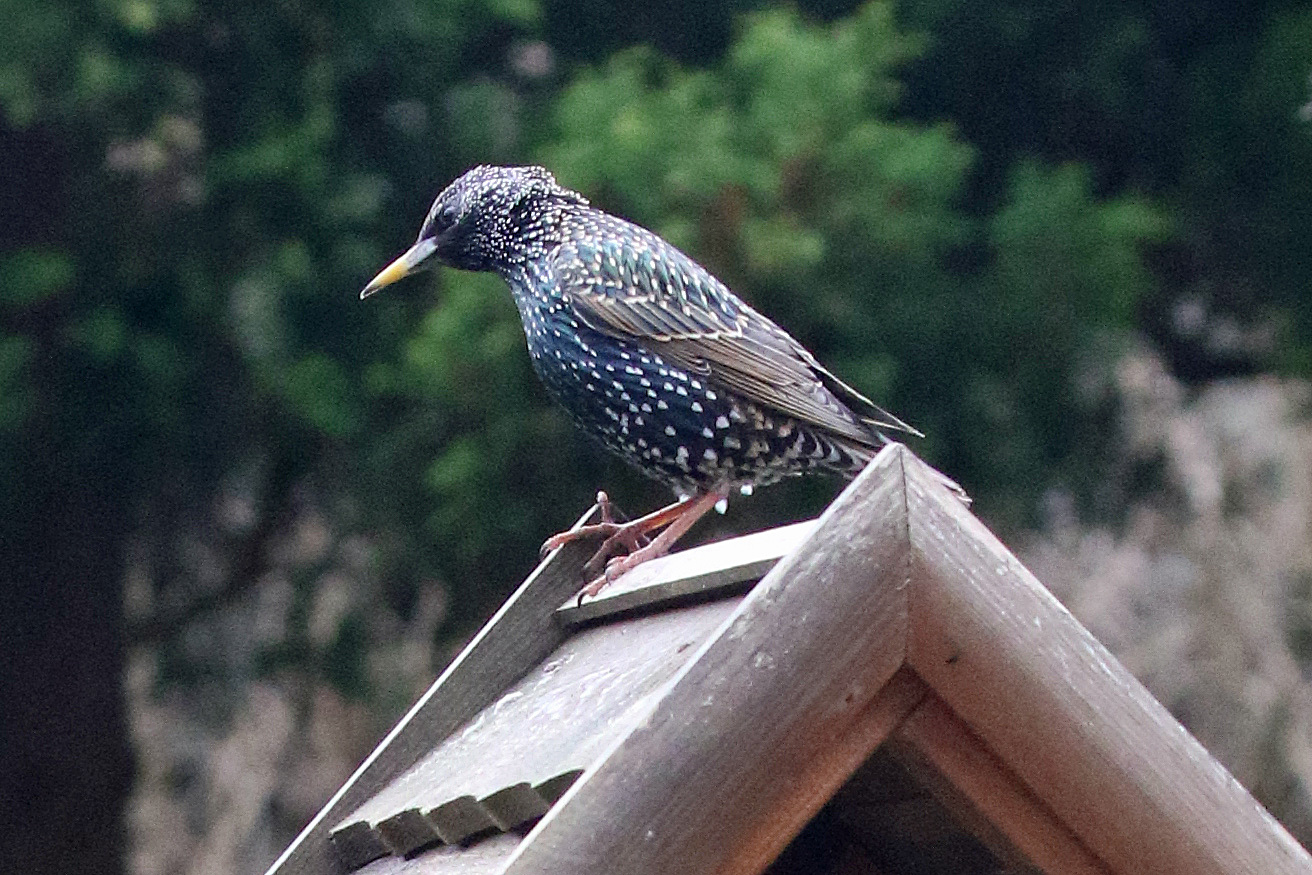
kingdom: Animalia
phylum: Chordata
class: Aves
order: Passeriformes
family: Sturnidae
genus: Sturnus
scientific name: Sturnus vulgaris
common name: Common starling
